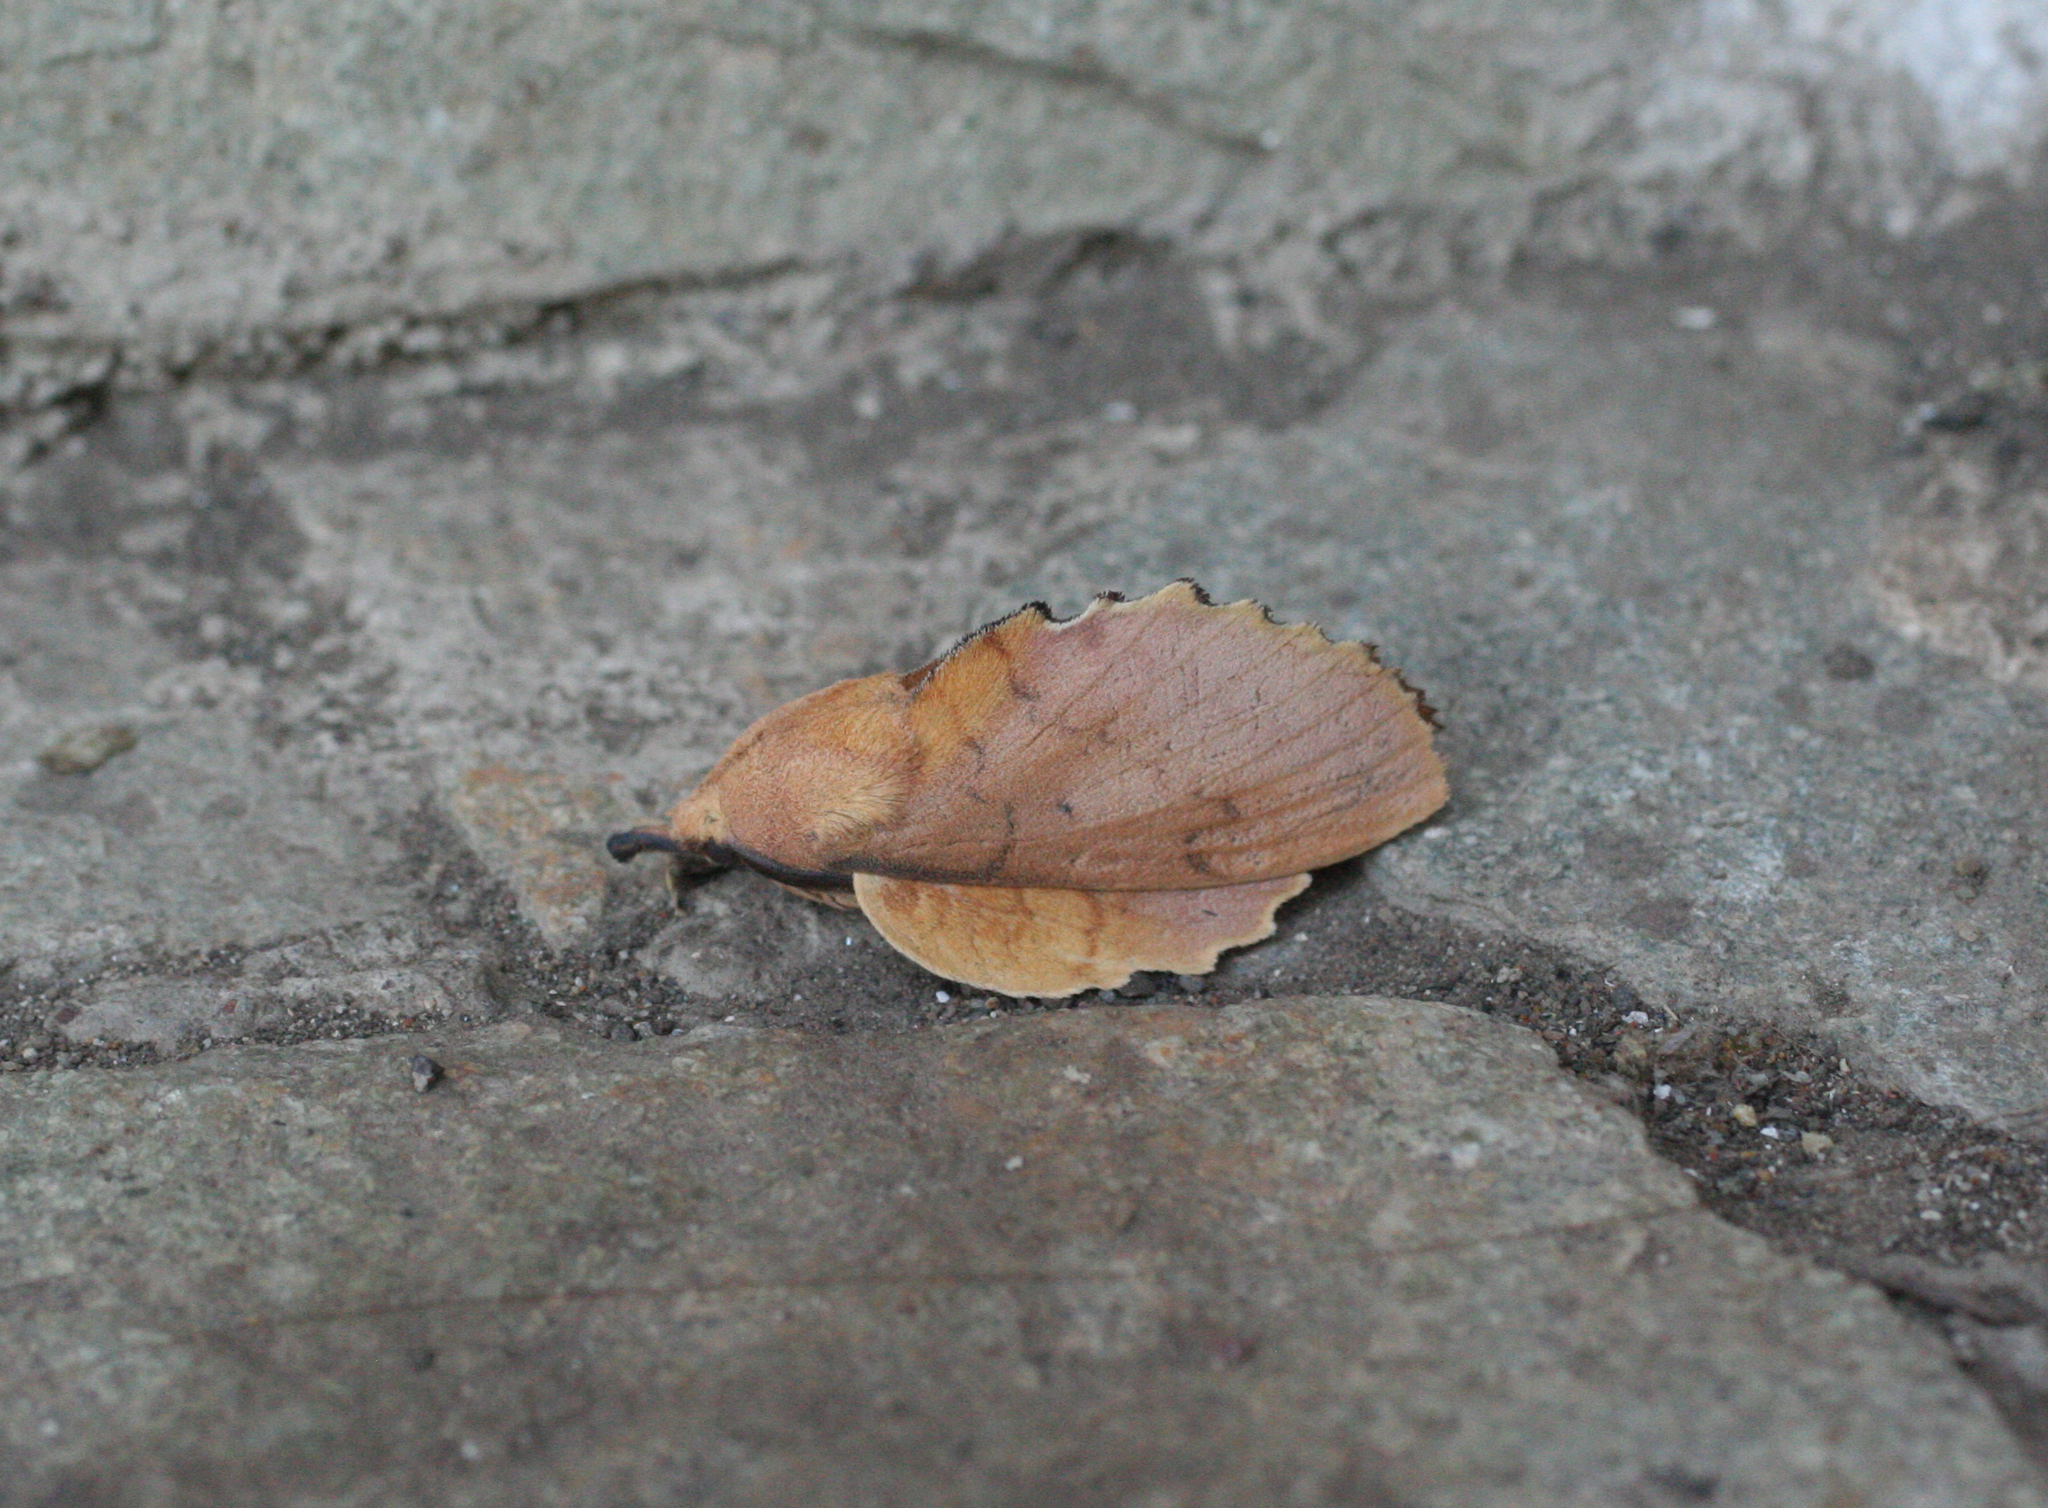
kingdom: Animalia
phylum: Arthropoda
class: Insecta
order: Lepidoptera
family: Lasiocampidae
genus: Gastropacha
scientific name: Gastropacha quercifolia
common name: Lappet
